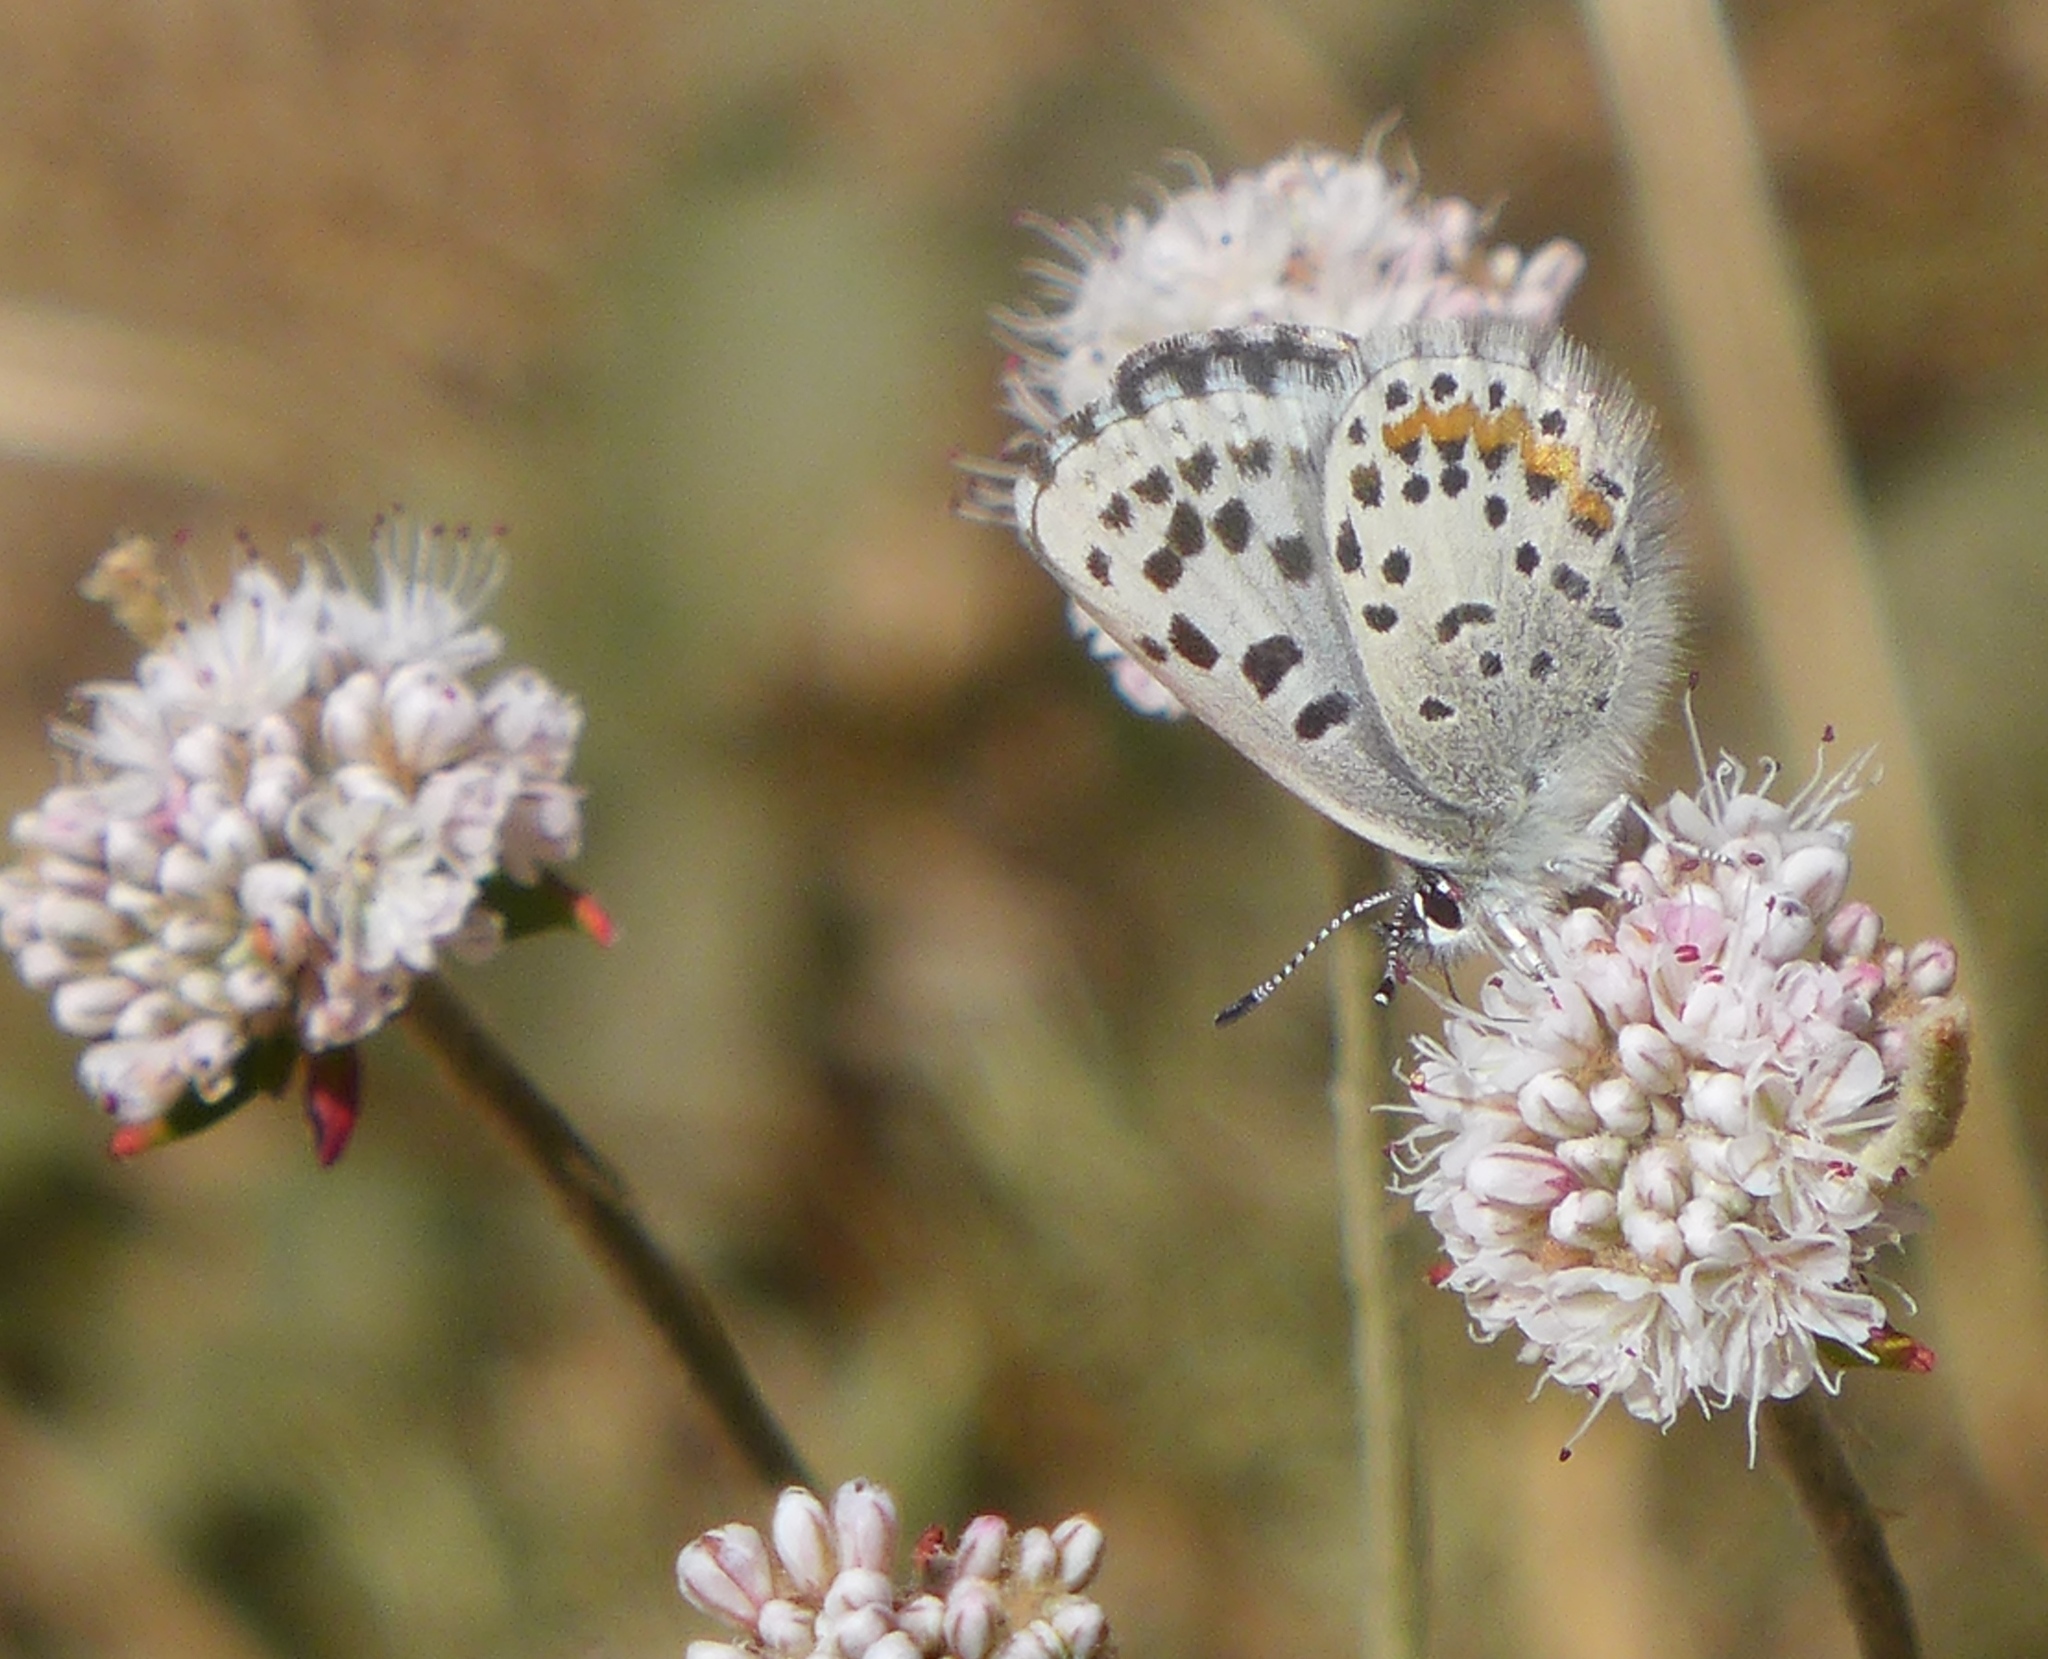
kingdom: Animalia
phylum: Arthropoda
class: Insecta
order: Lepidoptera
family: Lycaenidae
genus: Euphilotes
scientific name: Euphilotes enoptes
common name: Dotted blue
